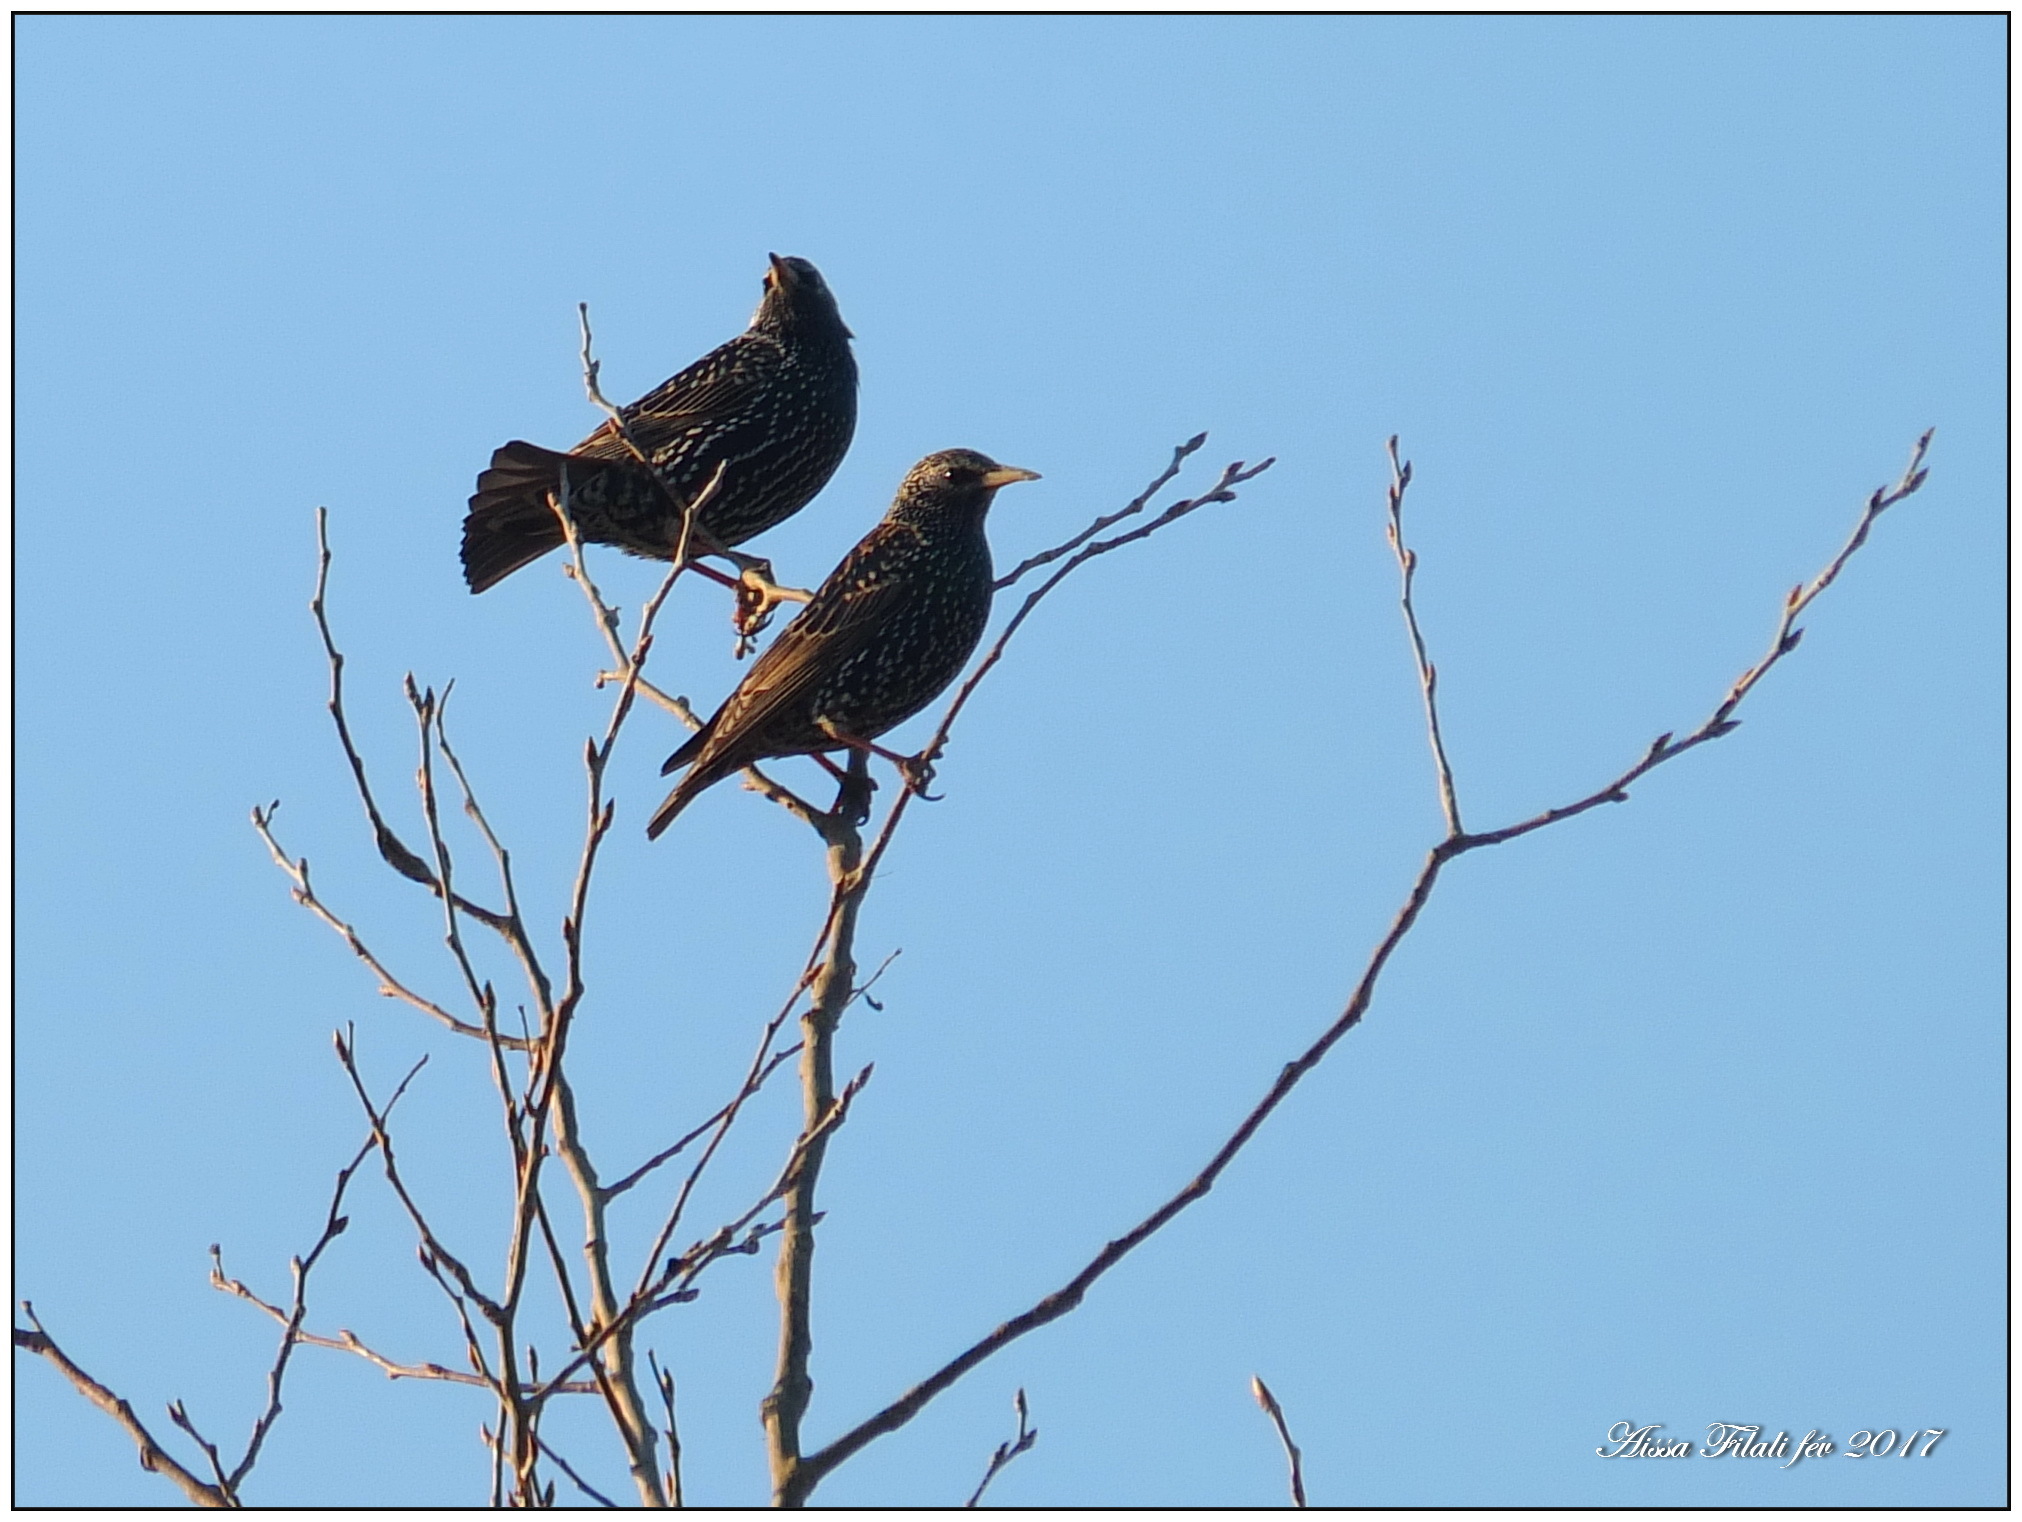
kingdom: Animalia
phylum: Chordata
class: Aves
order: Passeriformes
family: Sturnidae
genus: Sturnus
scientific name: Sturnus vulgaris
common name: Common starling
